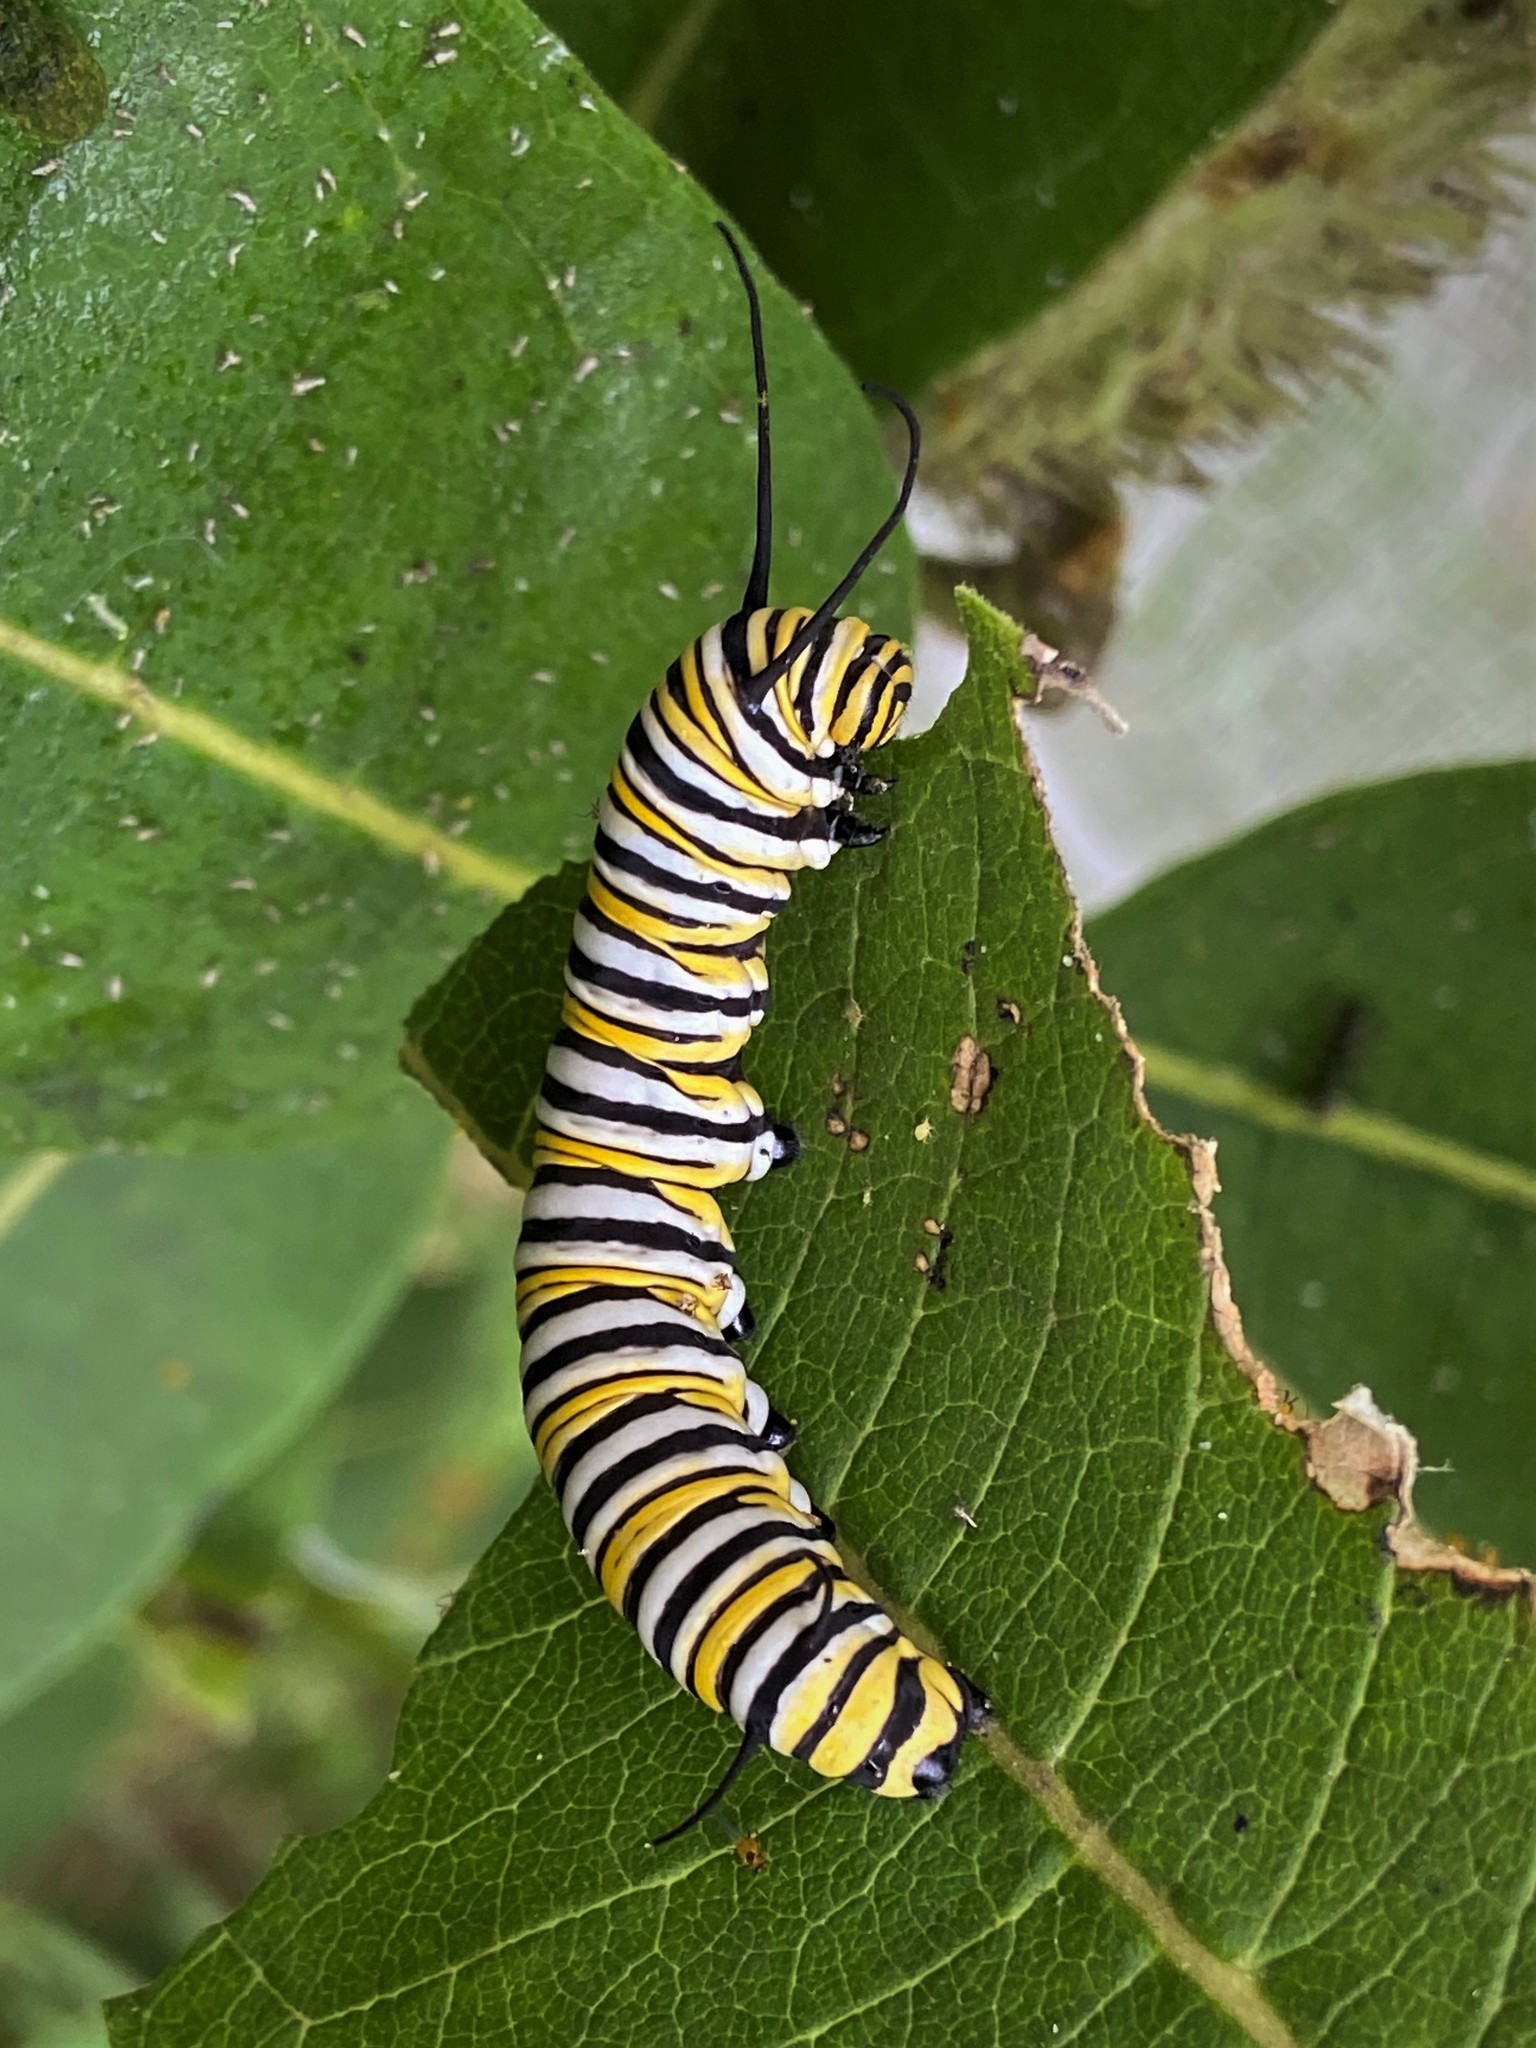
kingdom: Animalia
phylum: Arthropoda
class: Insecta
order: Lepidoptera
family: Nymphalidae
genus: Danaus
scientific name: Danaus plexippus
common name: Monarch
